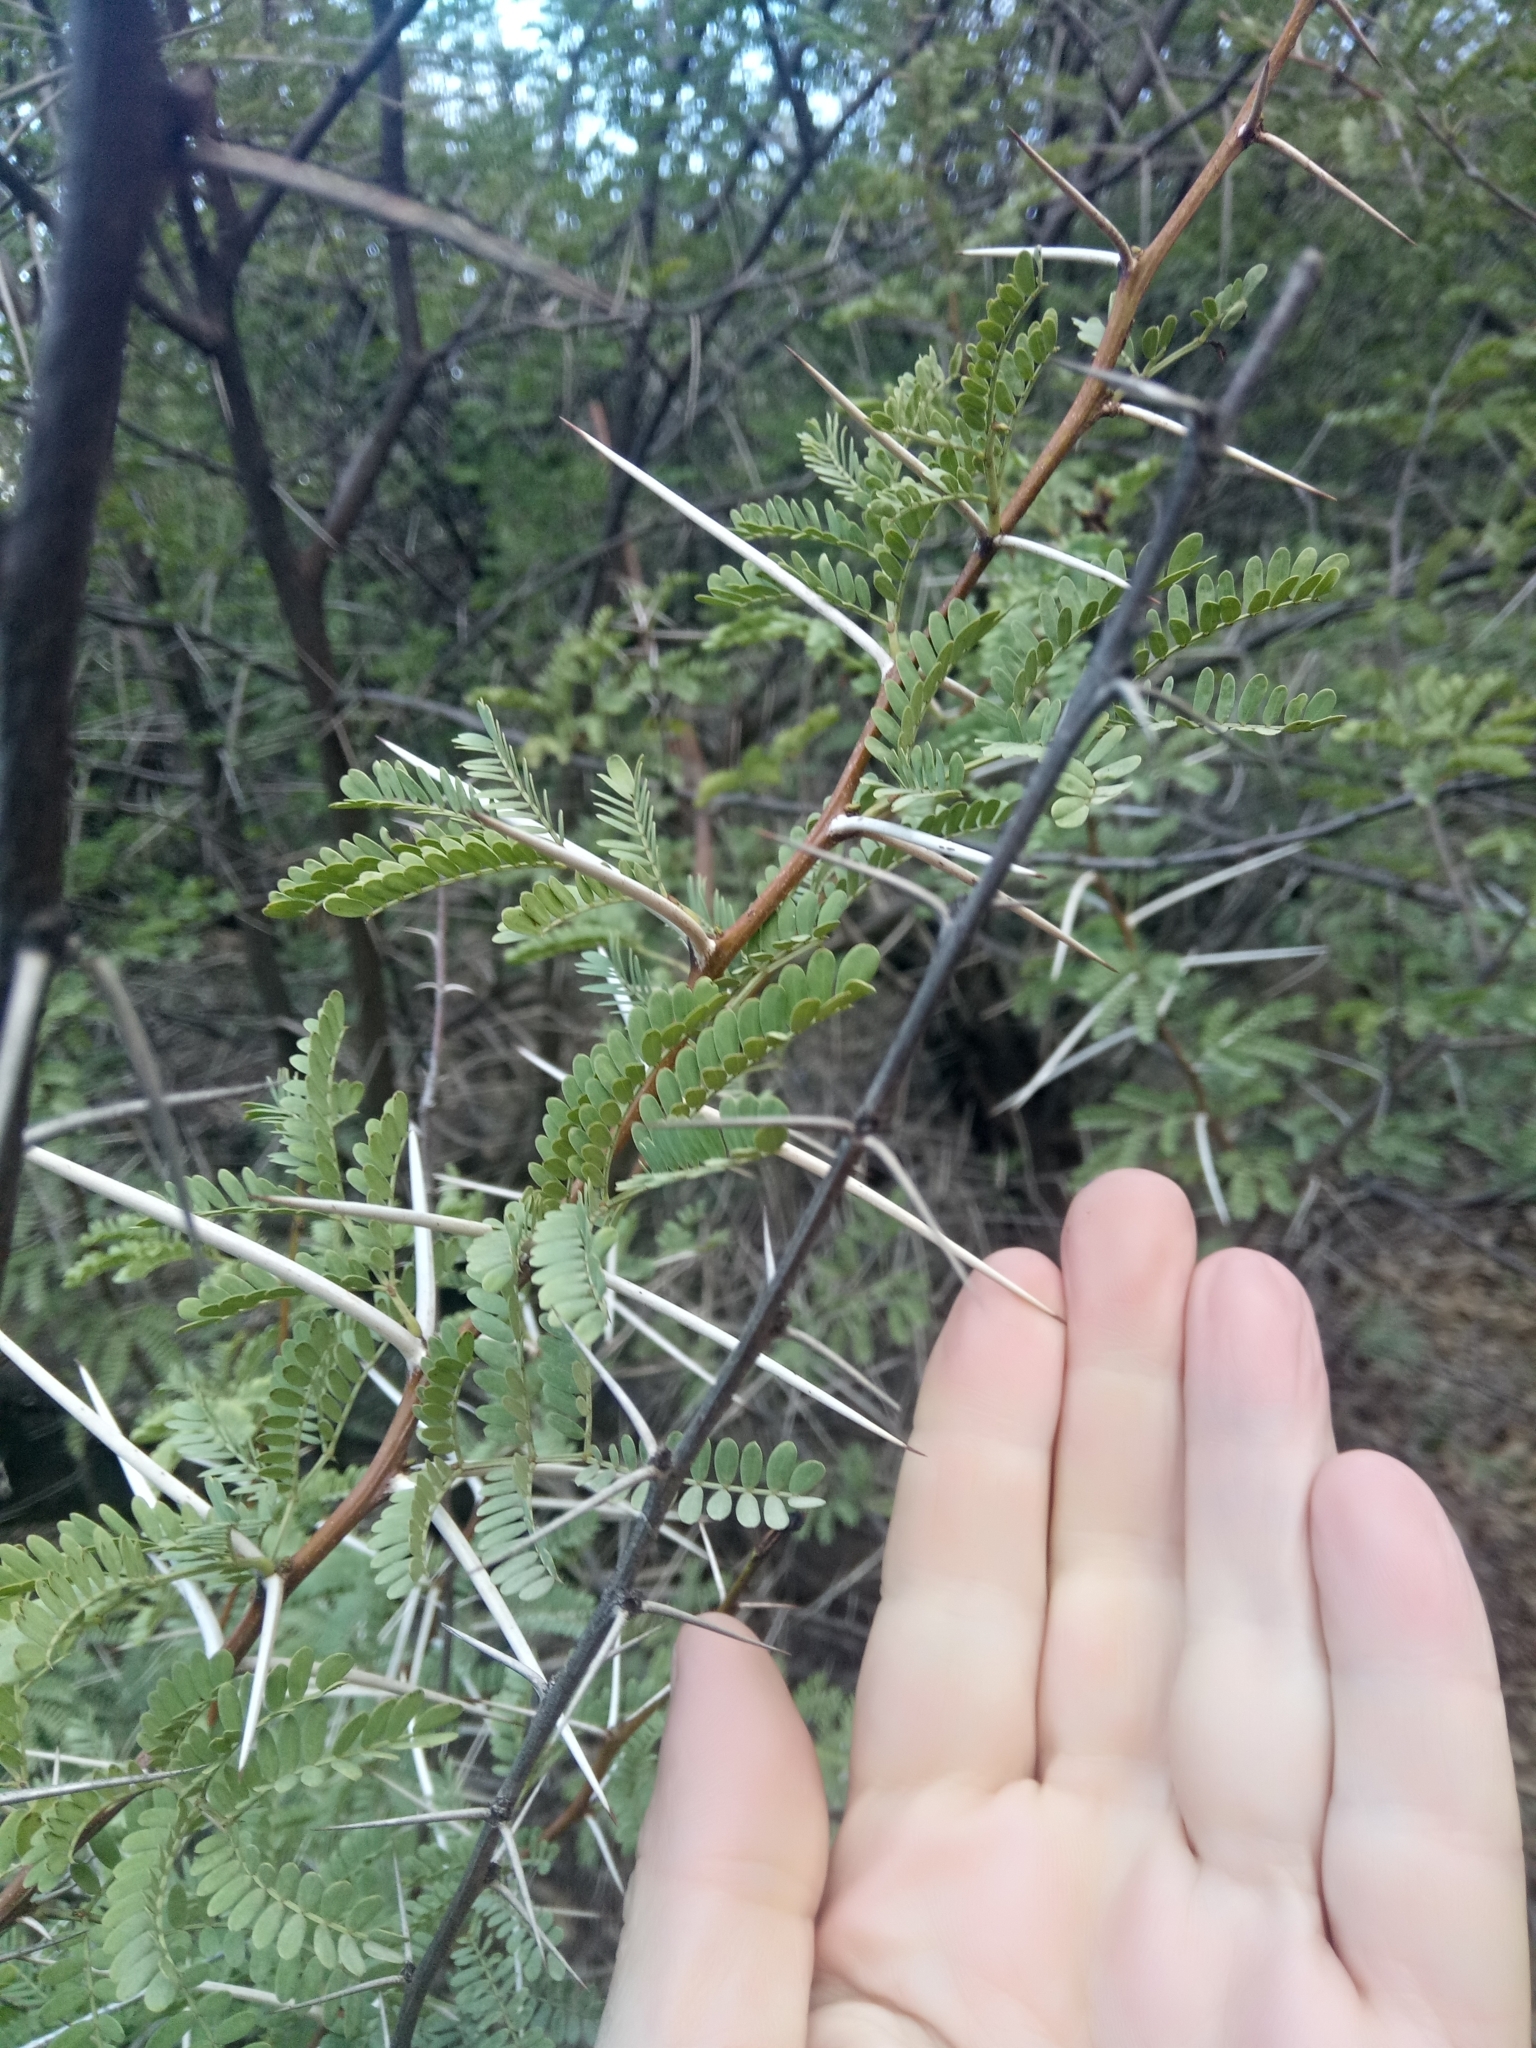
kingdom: Plantae
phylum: Tracheophyta
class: Magnoliopsida
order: Fabales
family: Fabaceae
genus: Vachellia
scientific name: Vachellia karroo
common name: Sweet thorn
